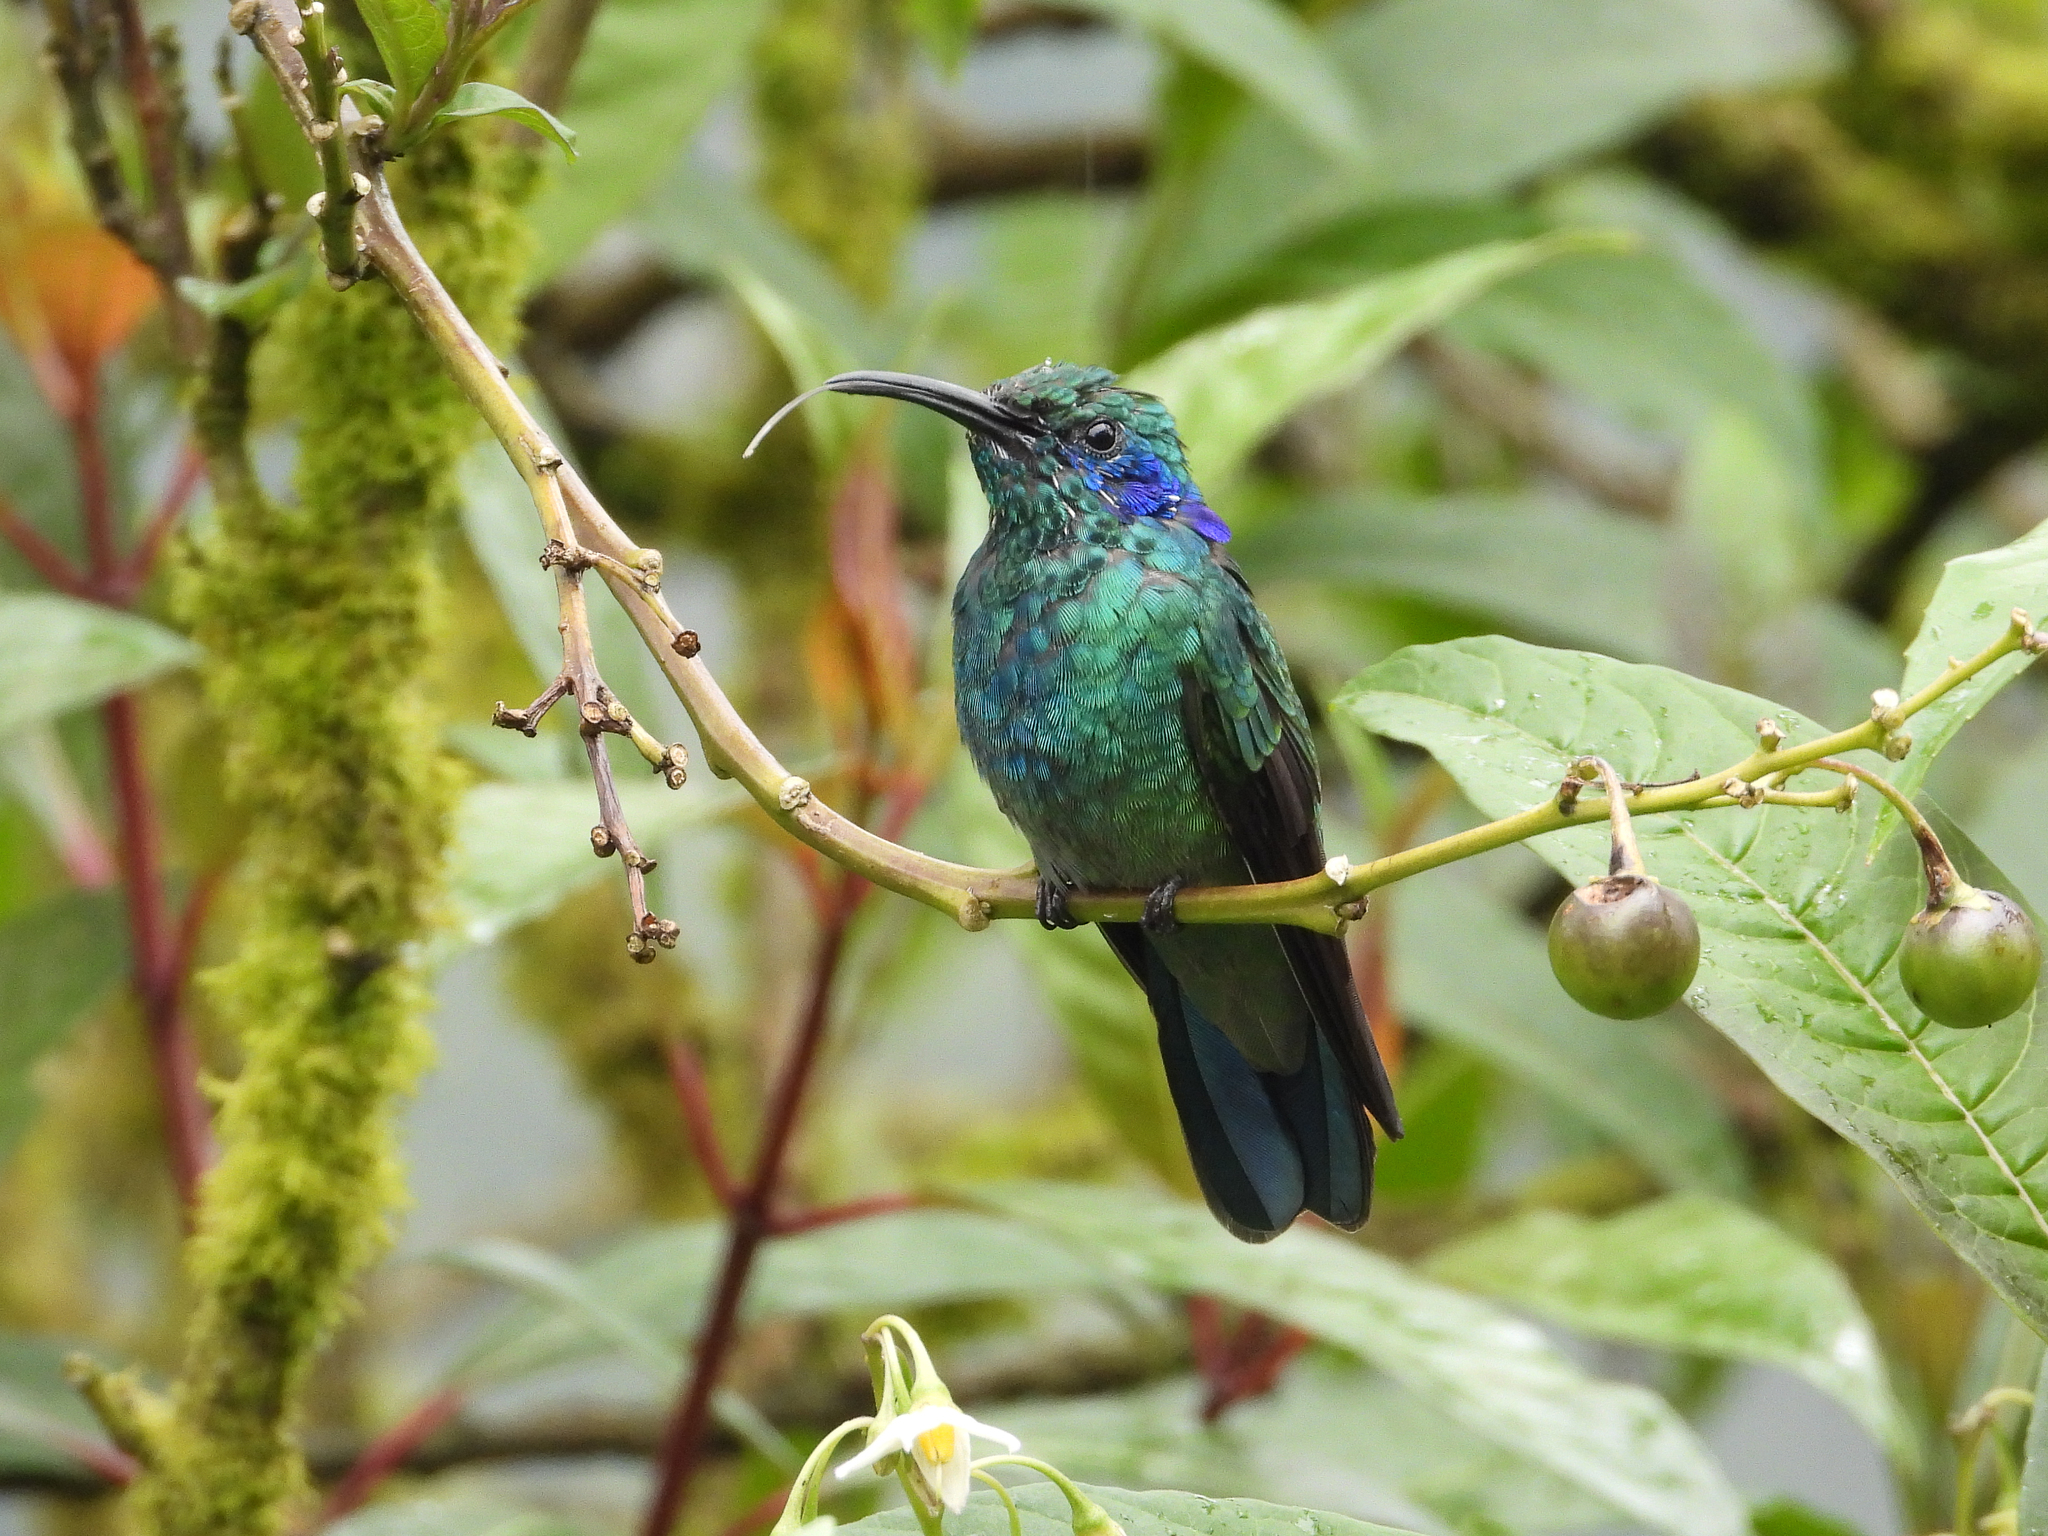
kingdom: Animalia
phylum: Chordata
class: Aves
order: Apodiformes
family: Trochilidae
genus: Colibri
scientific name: Colibri cyanotus
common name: Lesser violetear
